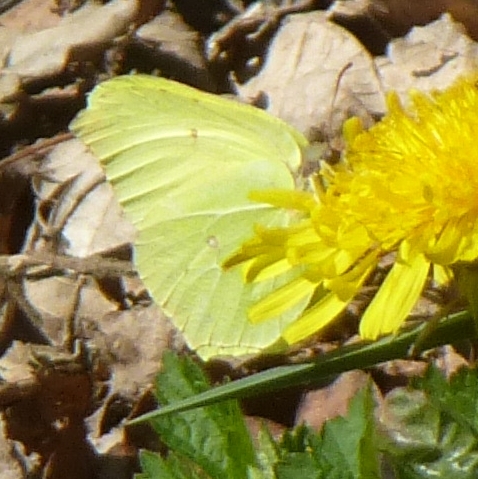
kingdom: Animalia
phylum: Arthropoda
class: Insecta
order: Lepidoptera
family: Pieridae
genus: Gonepteryx
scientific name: Gonepteryx rhamni
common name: Brimstone
